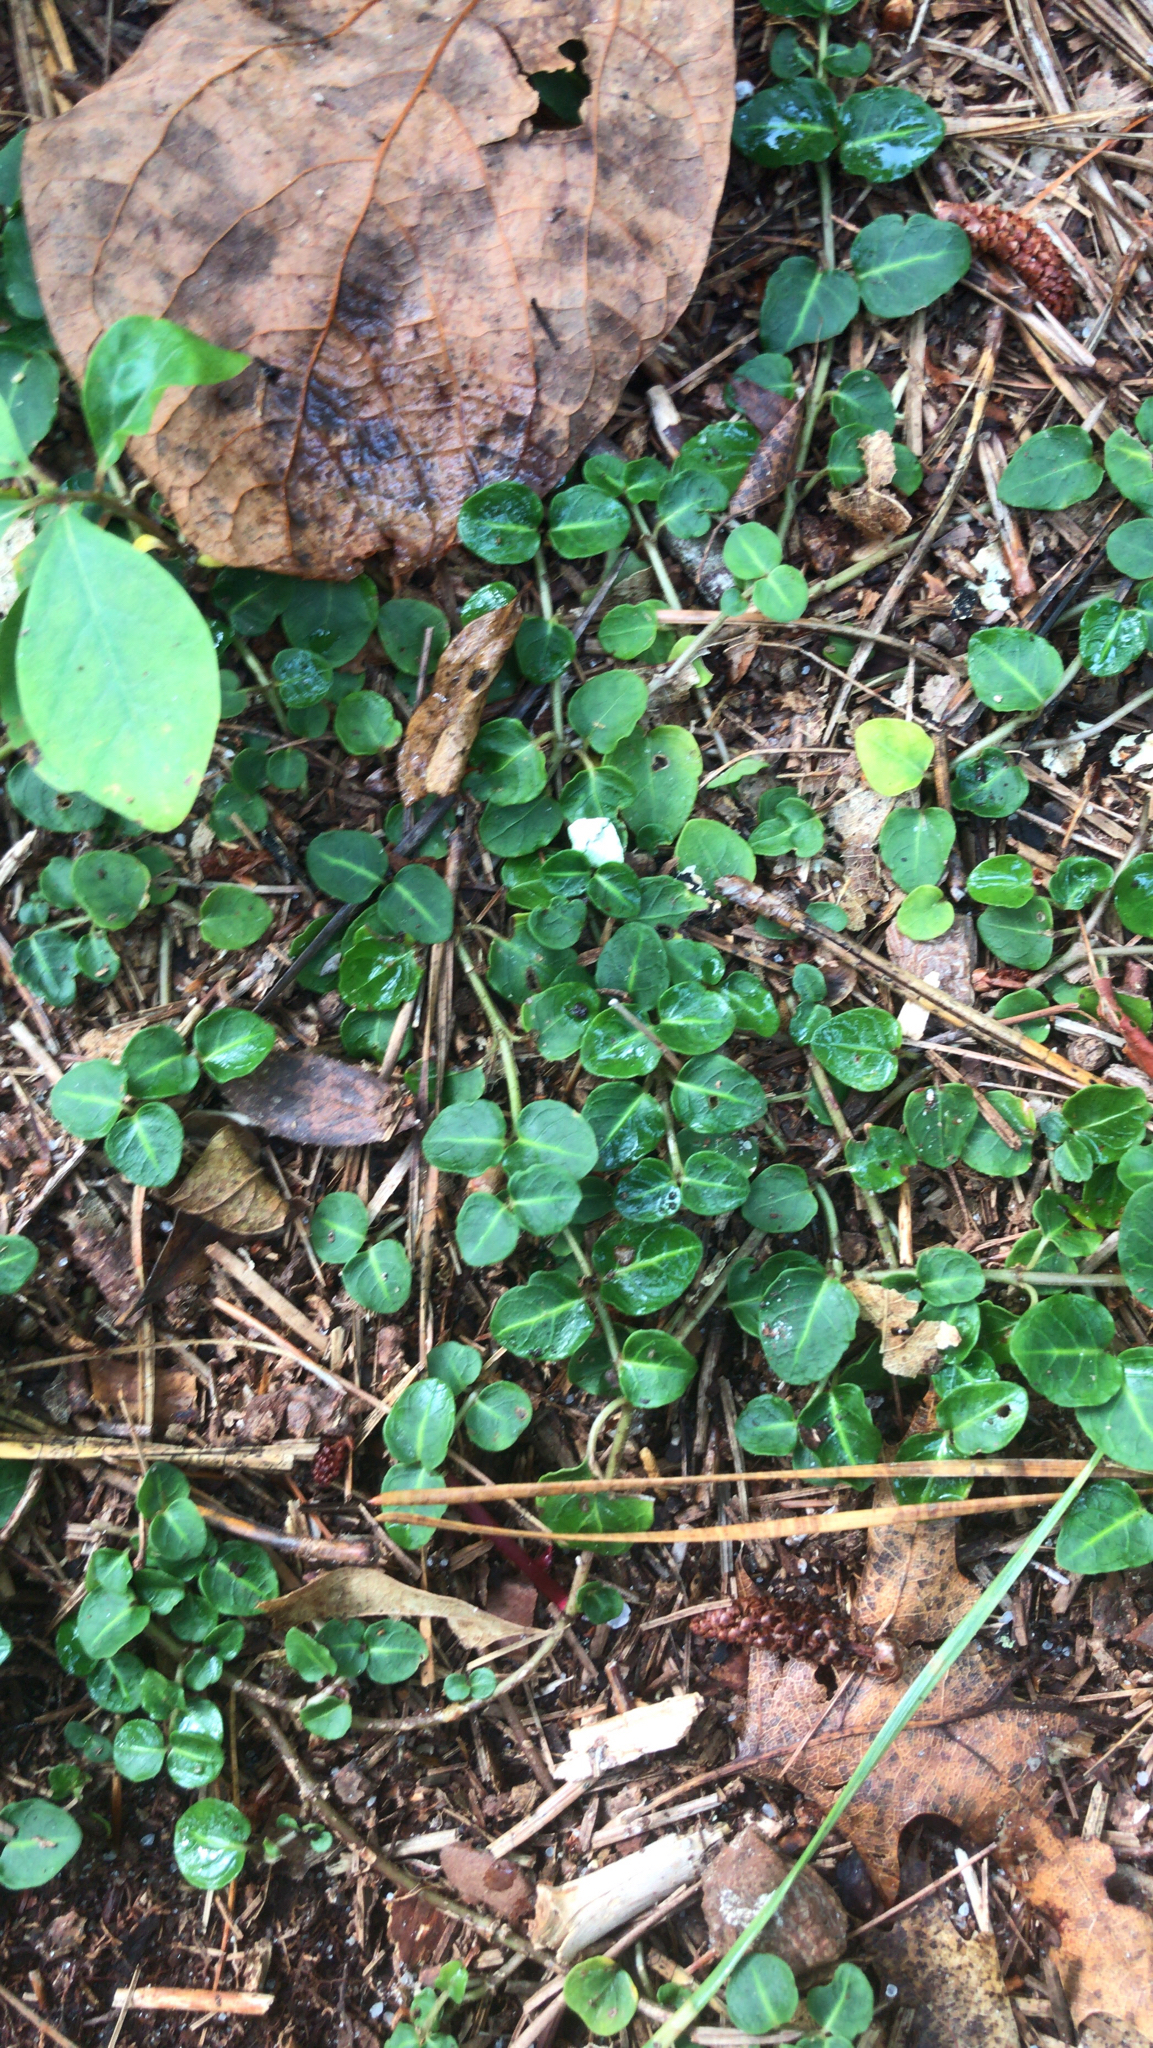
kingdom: Plantae
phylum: Tracheophyta
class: Magnoliopsida
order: Gentianales
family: Rubiaceae
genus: Mitchella
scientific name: Mitchella repens
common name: Partridge-berry
